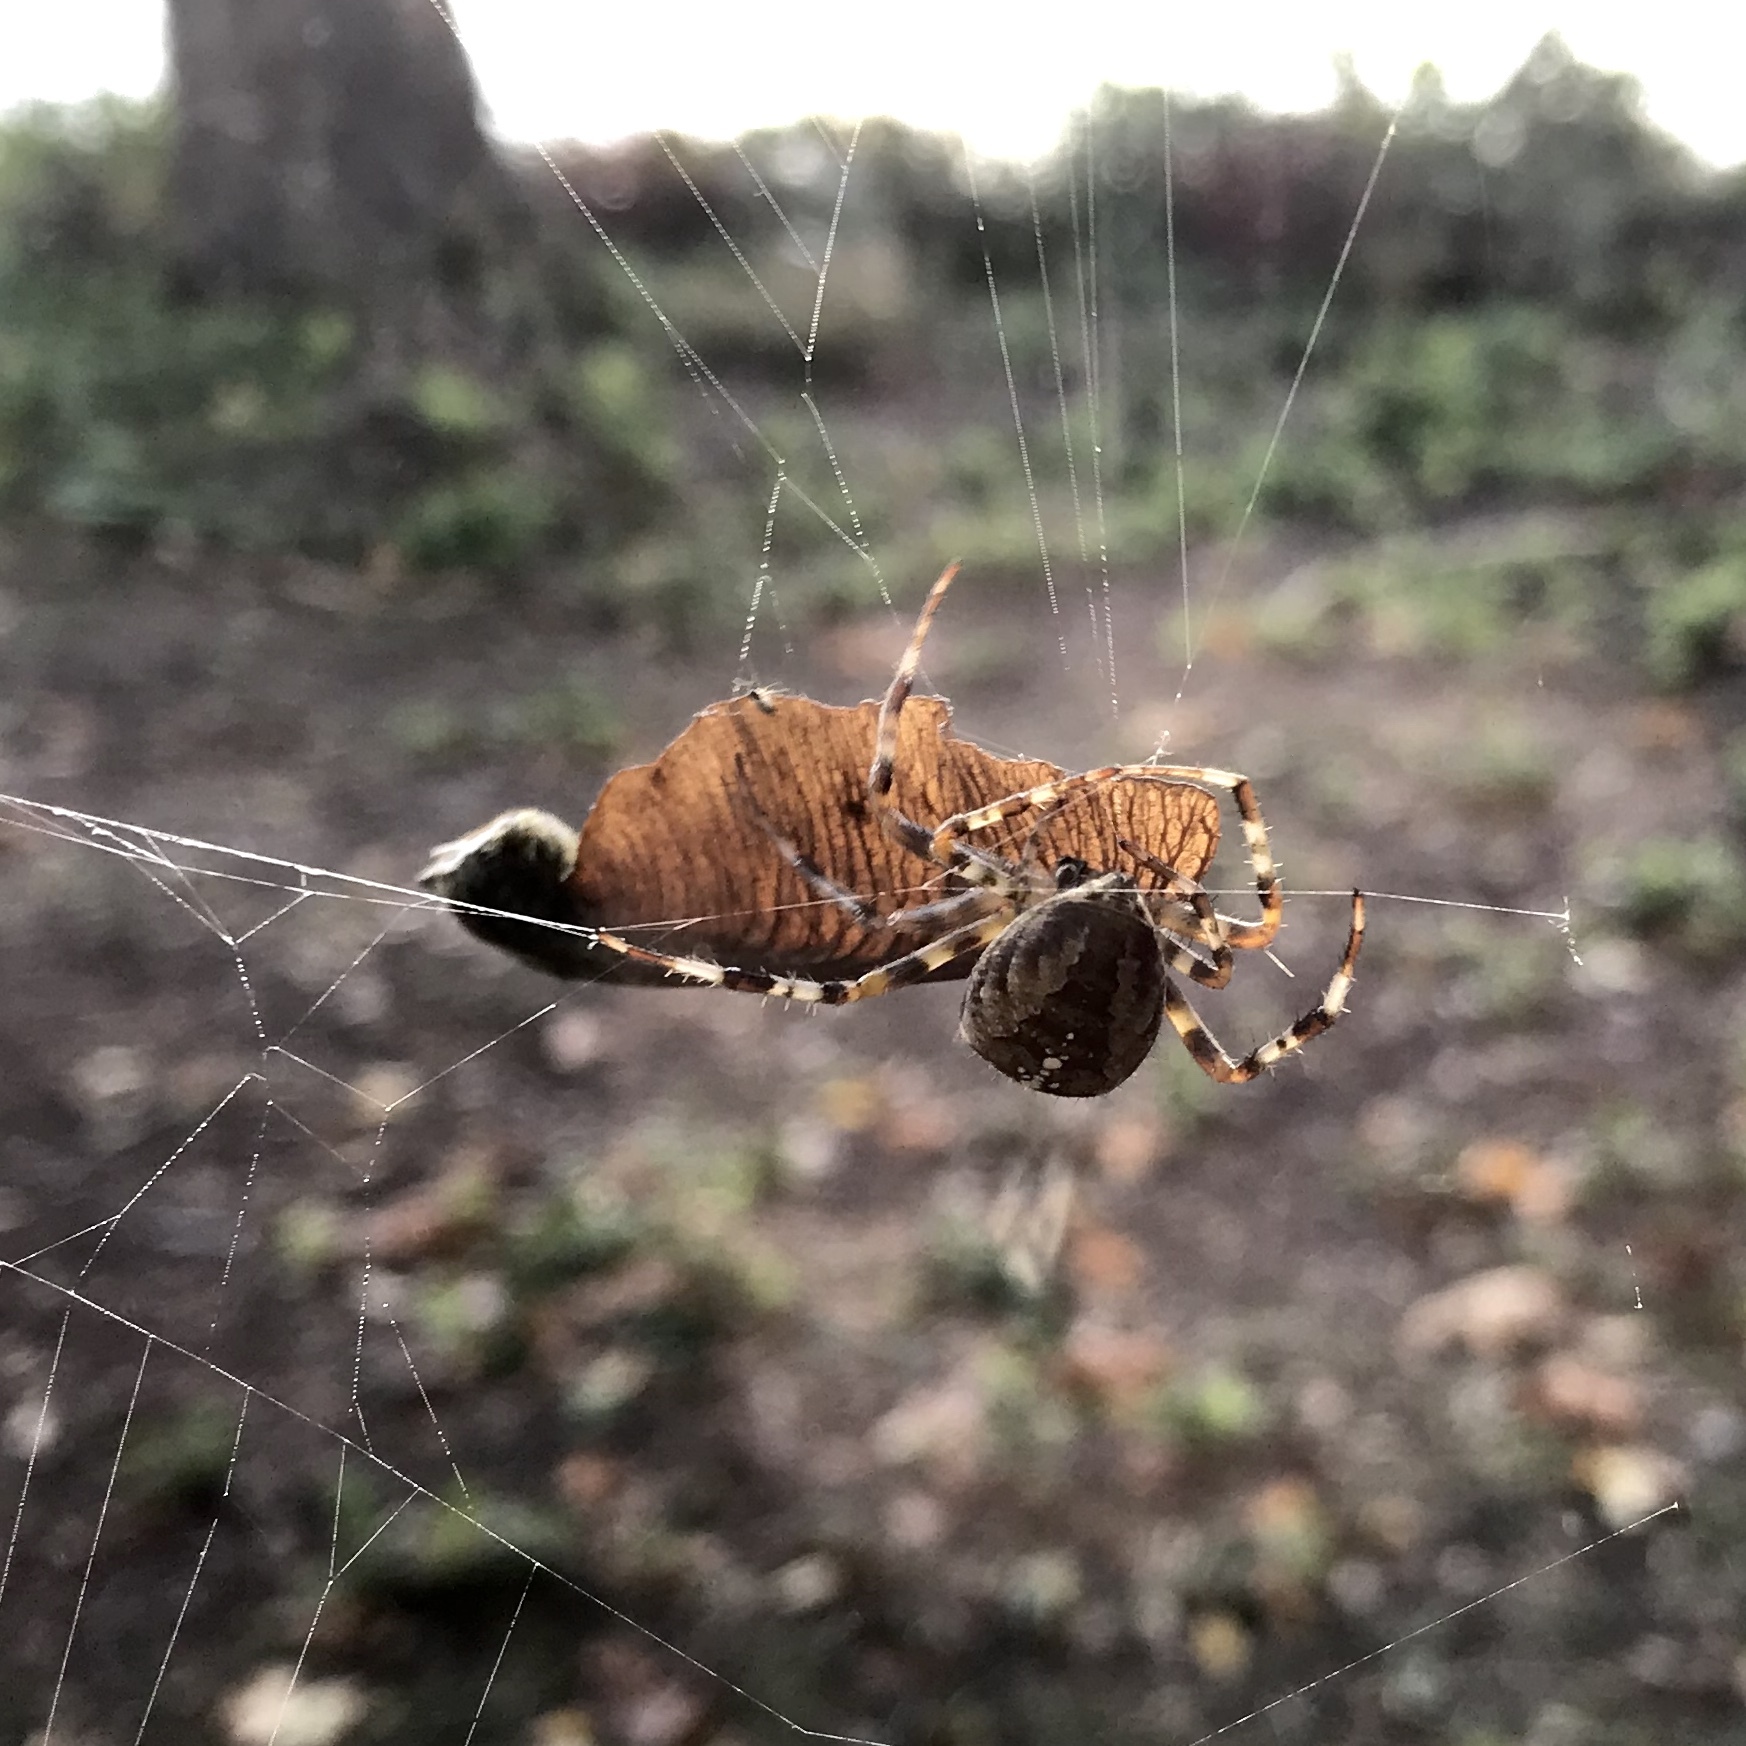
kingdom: Animalia
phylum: Arthropoda
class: Arachnida
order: Araneae
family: Araneidae
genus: Araneus
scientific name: Araneus diadematus
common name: Cross orbweaver
